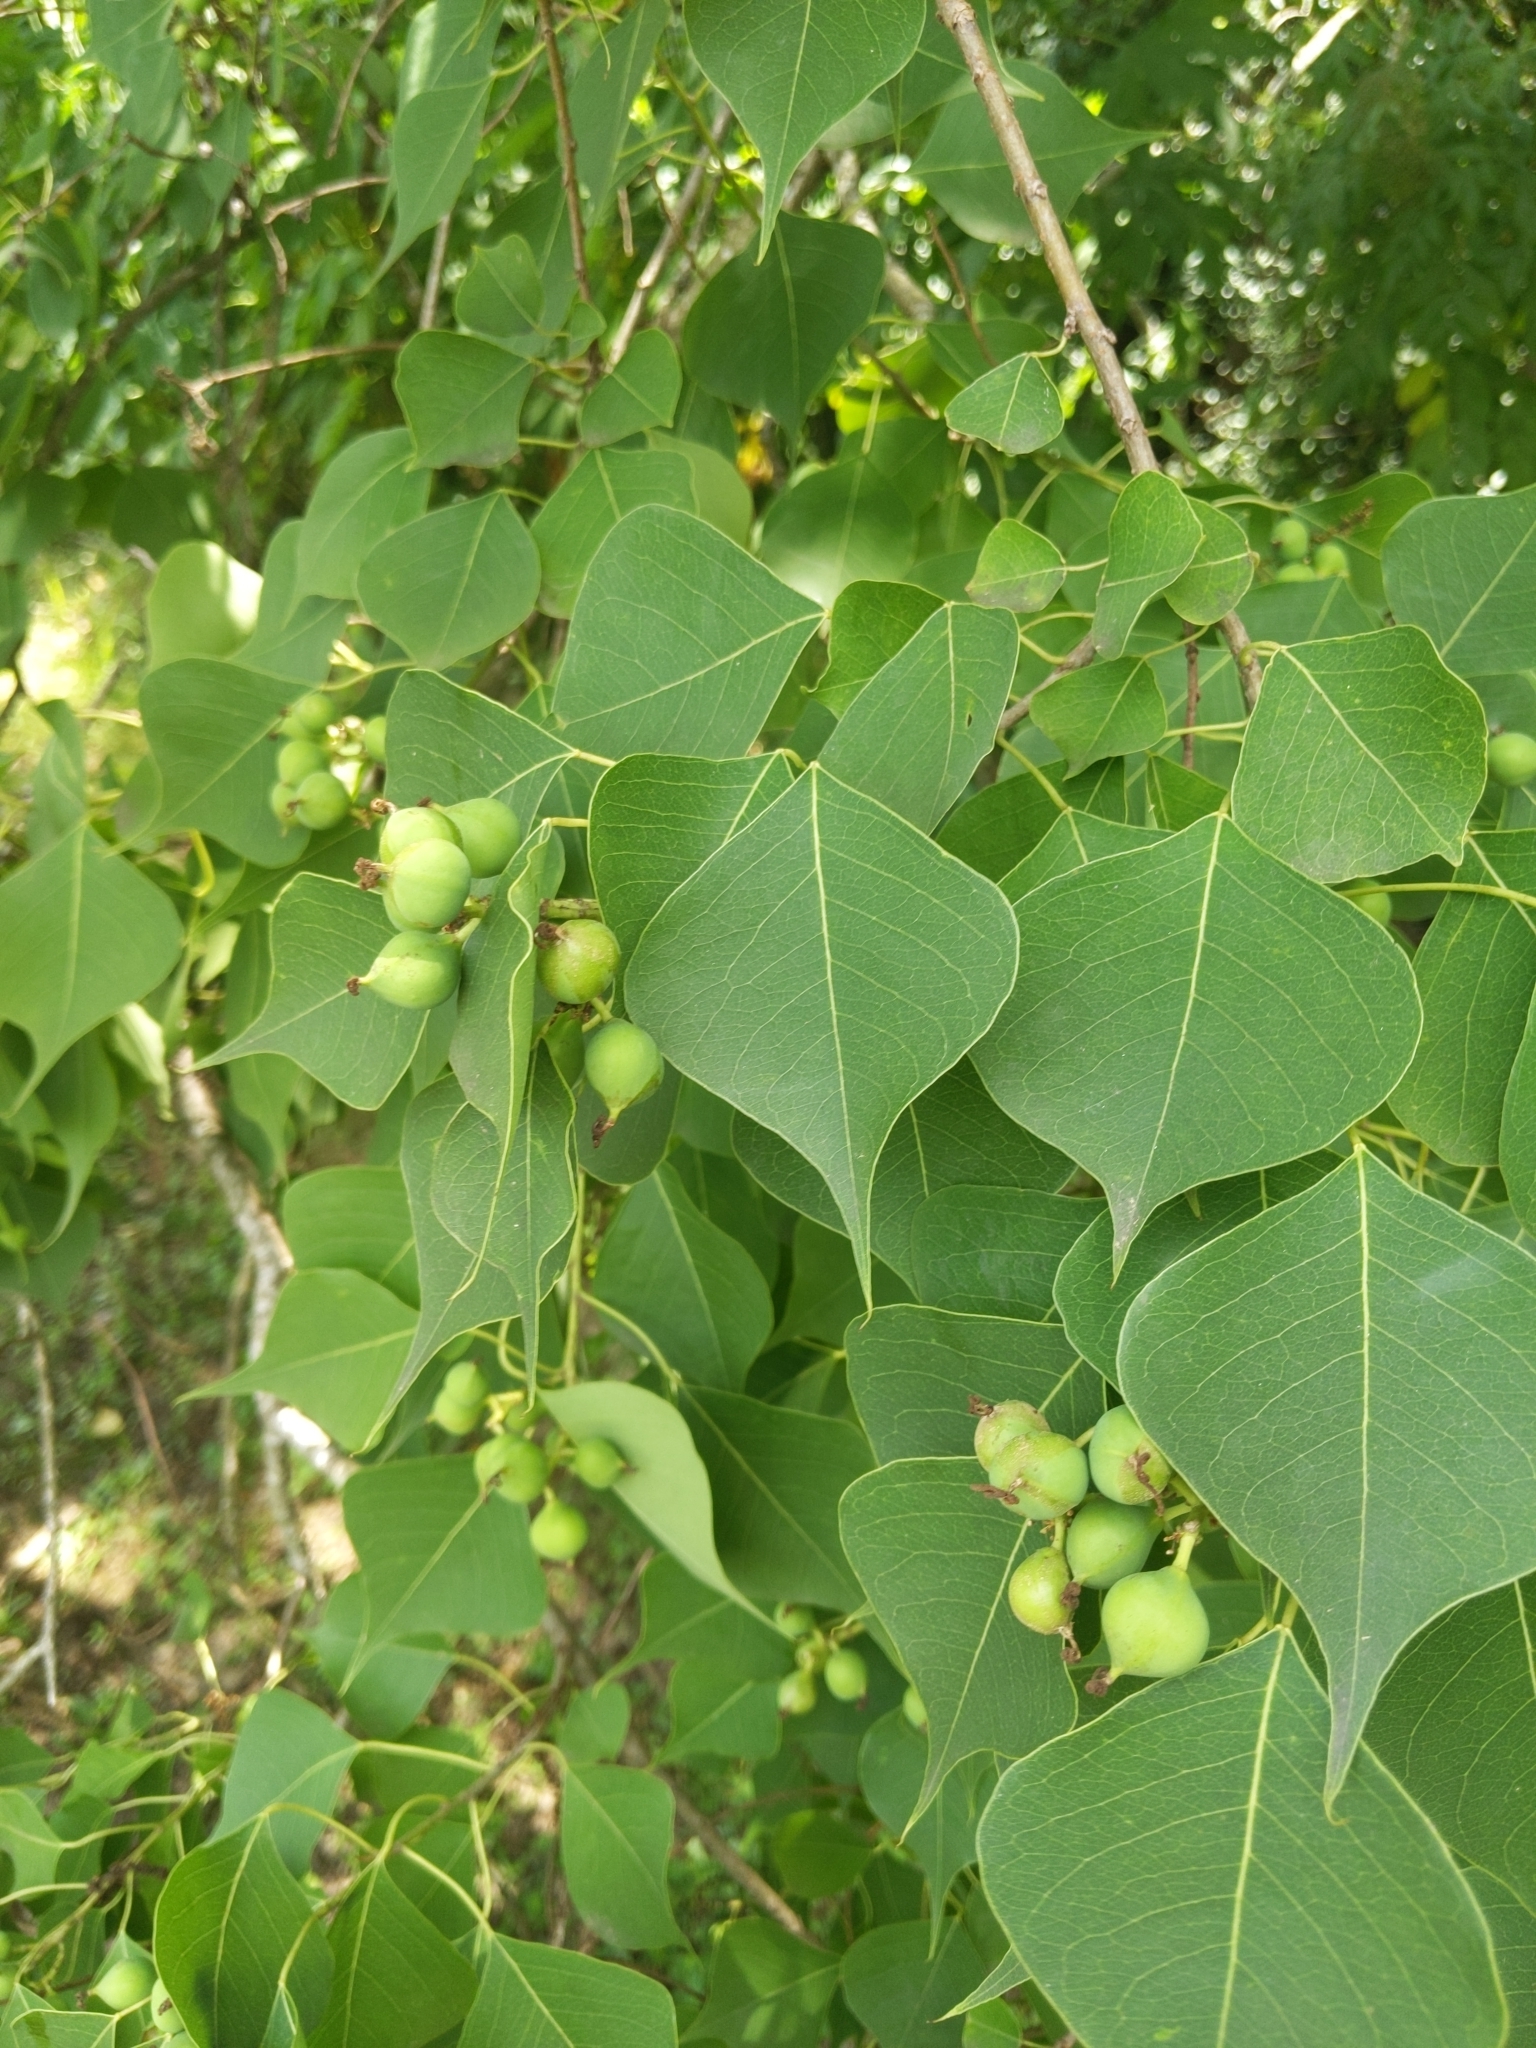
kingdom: Plantae
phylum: Tracheophyta
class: Magnoliopsida
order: Malpighiales
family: Euphorbiaceae
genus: Triadica
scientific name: Triadica sebifera
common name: Chinese tallow
